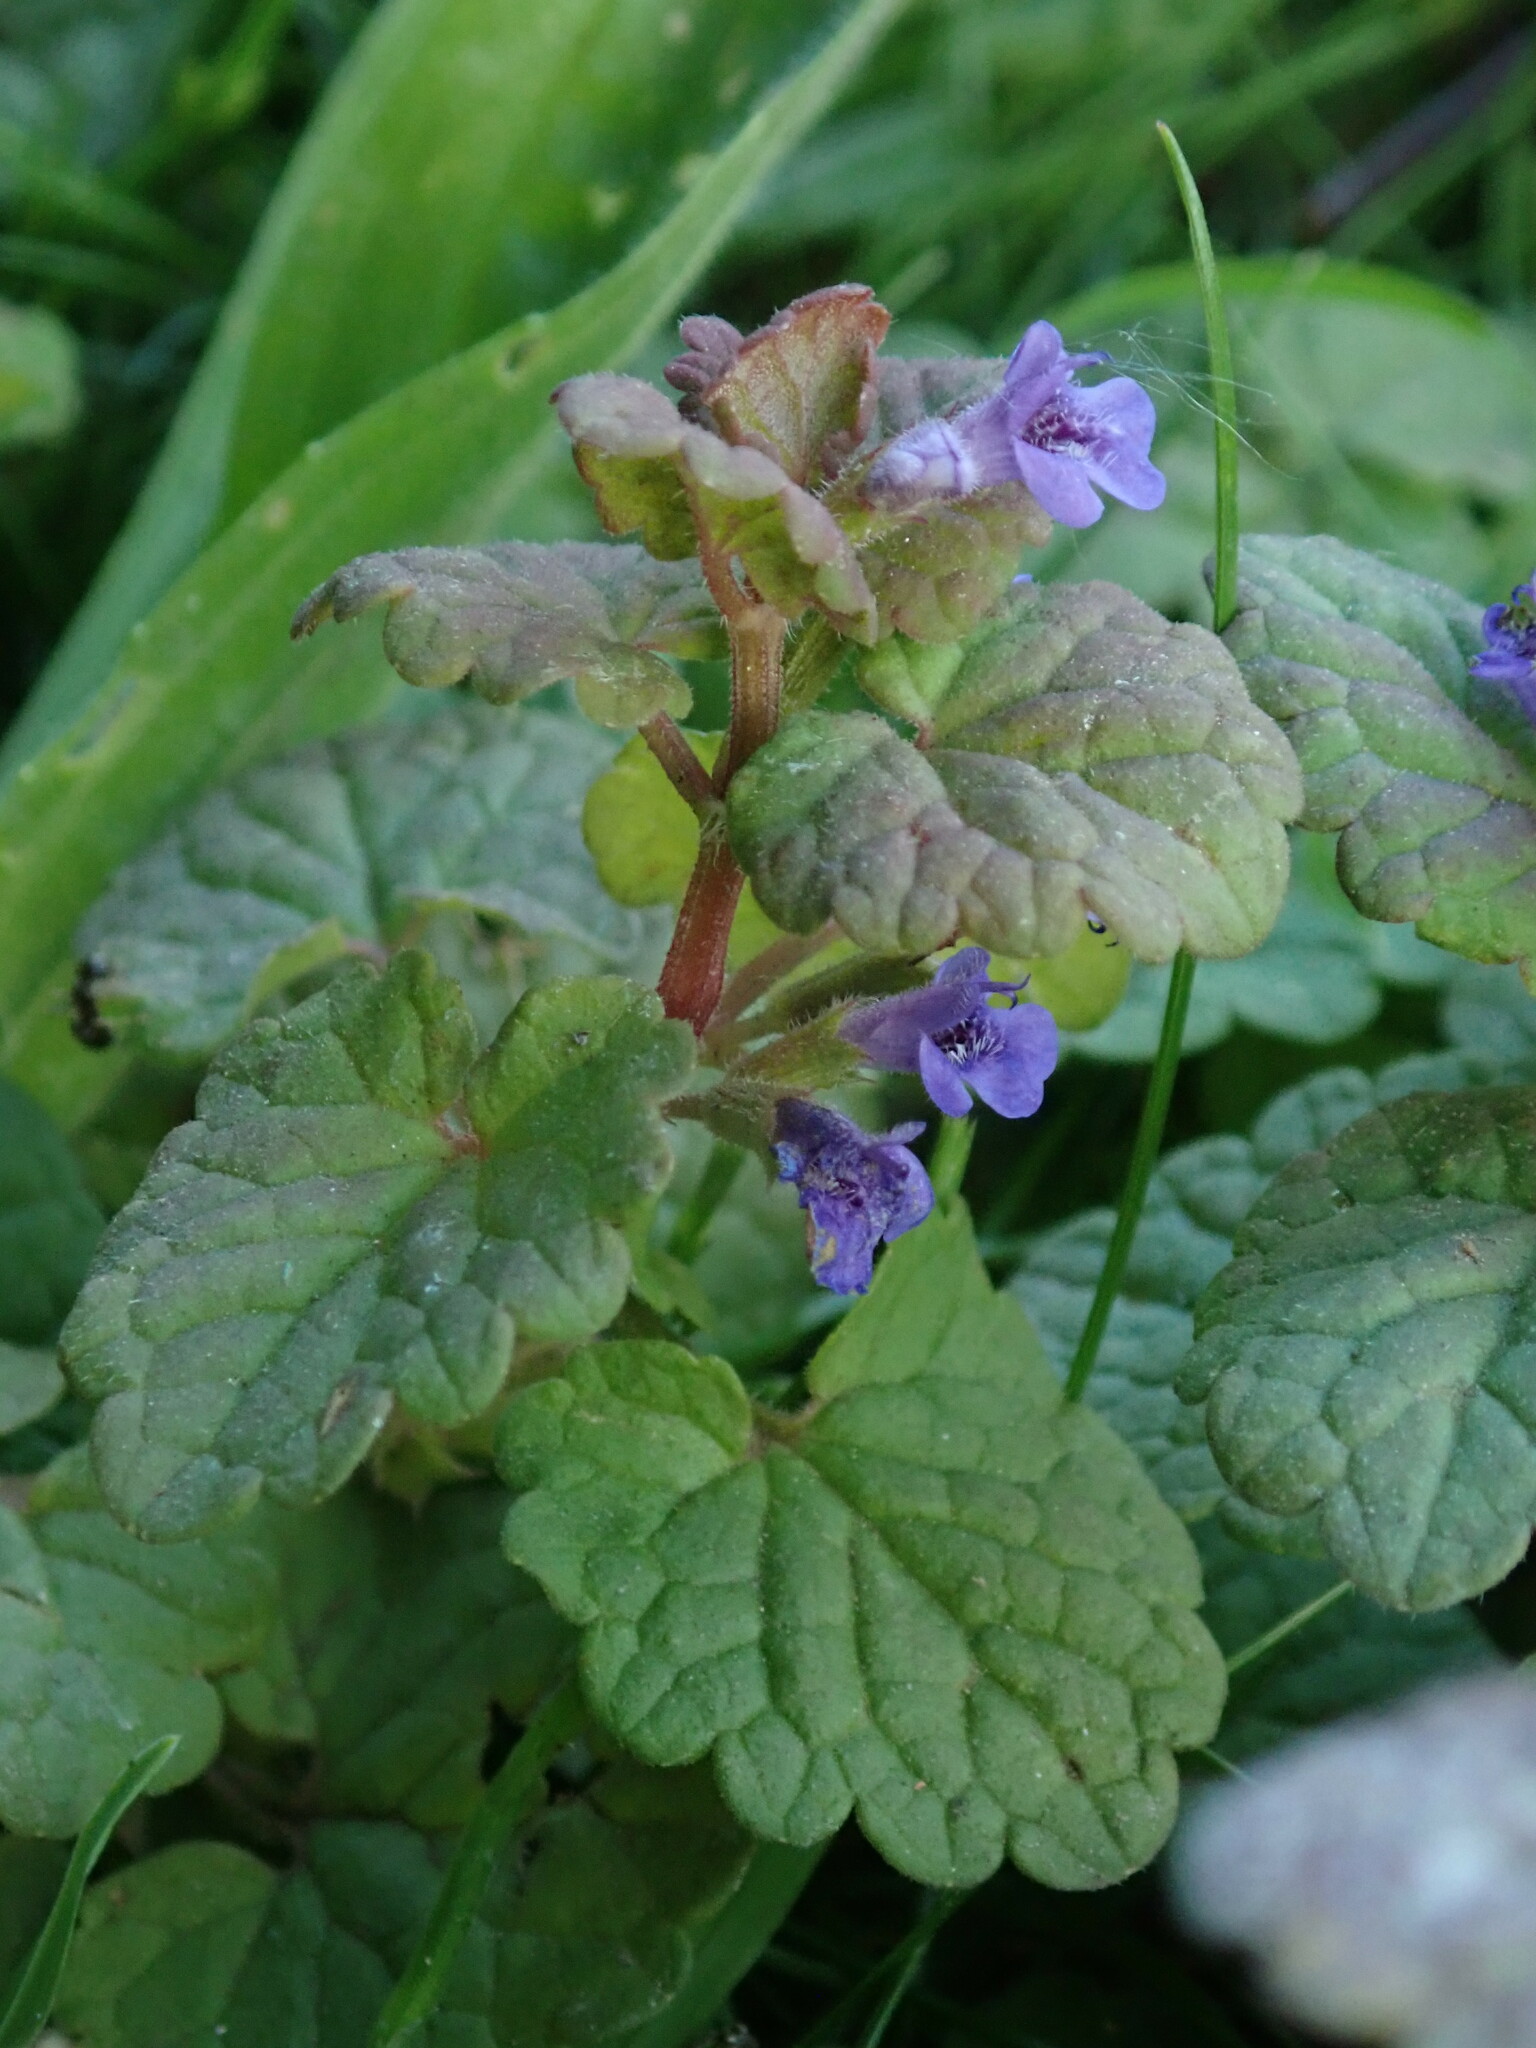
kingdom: Plantae
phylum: Tracheophyta
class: Magnoliopsida
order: Lamiales
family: Lamiaceae
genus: Glechoma
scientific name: Glechoma hederacea
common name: Ground ivy
